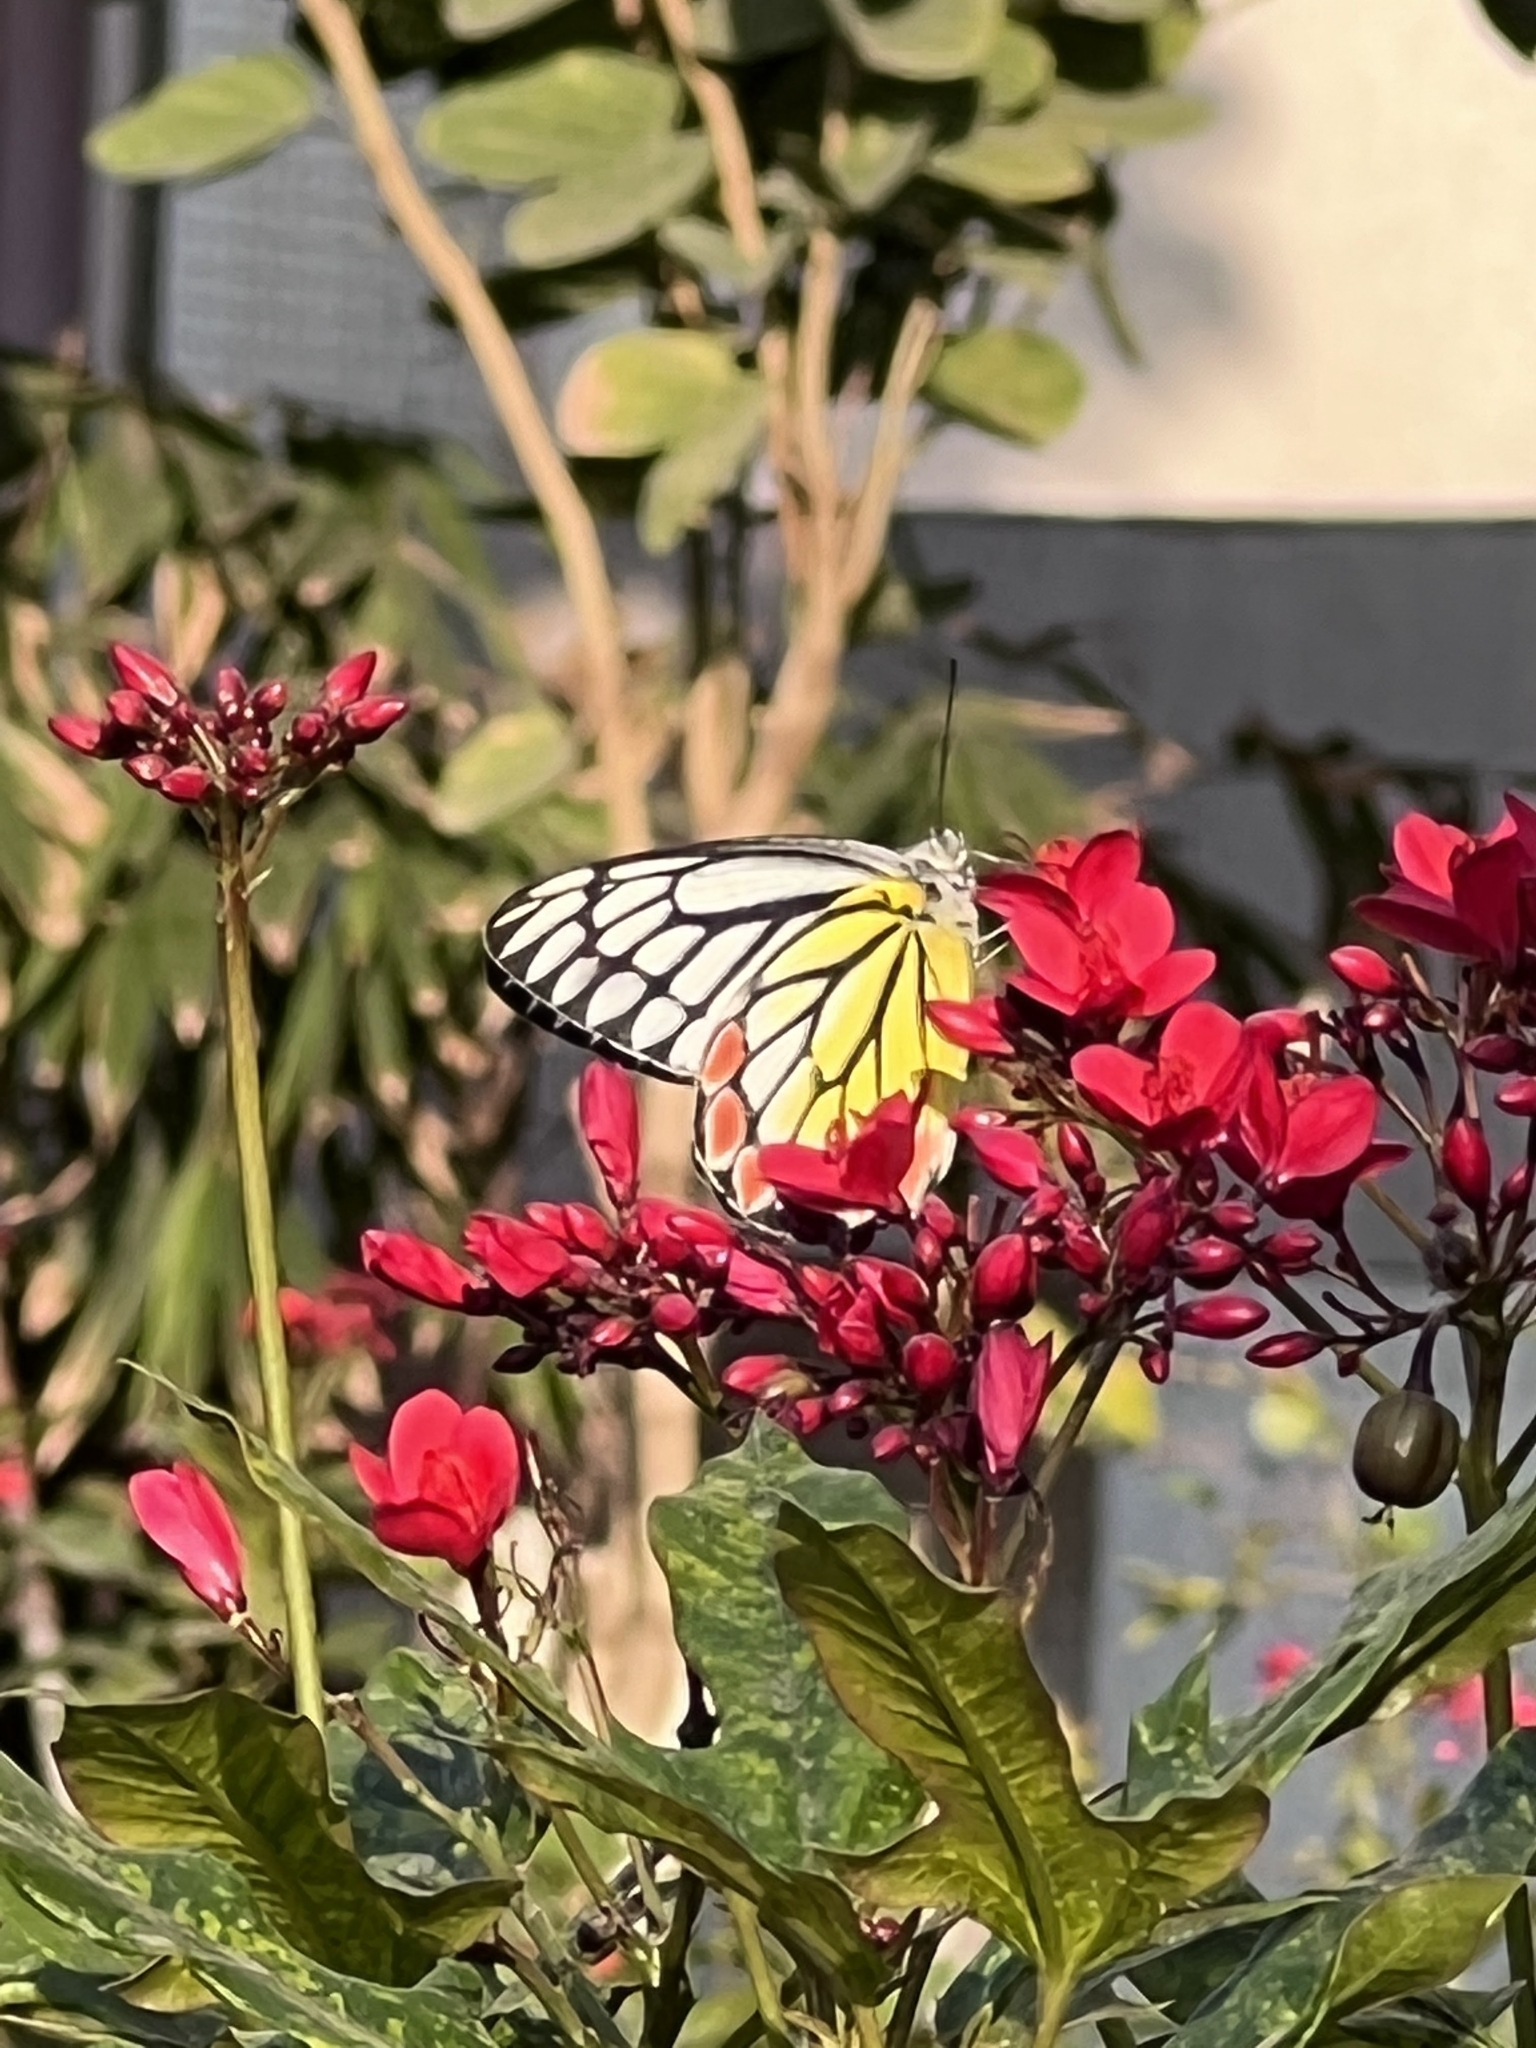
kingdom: Animalia
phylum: Arthropoda
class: Insecta
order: Lepidoptera
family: Pieridae
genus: Delias
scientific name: Delias eucharis
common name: Common jezebel
